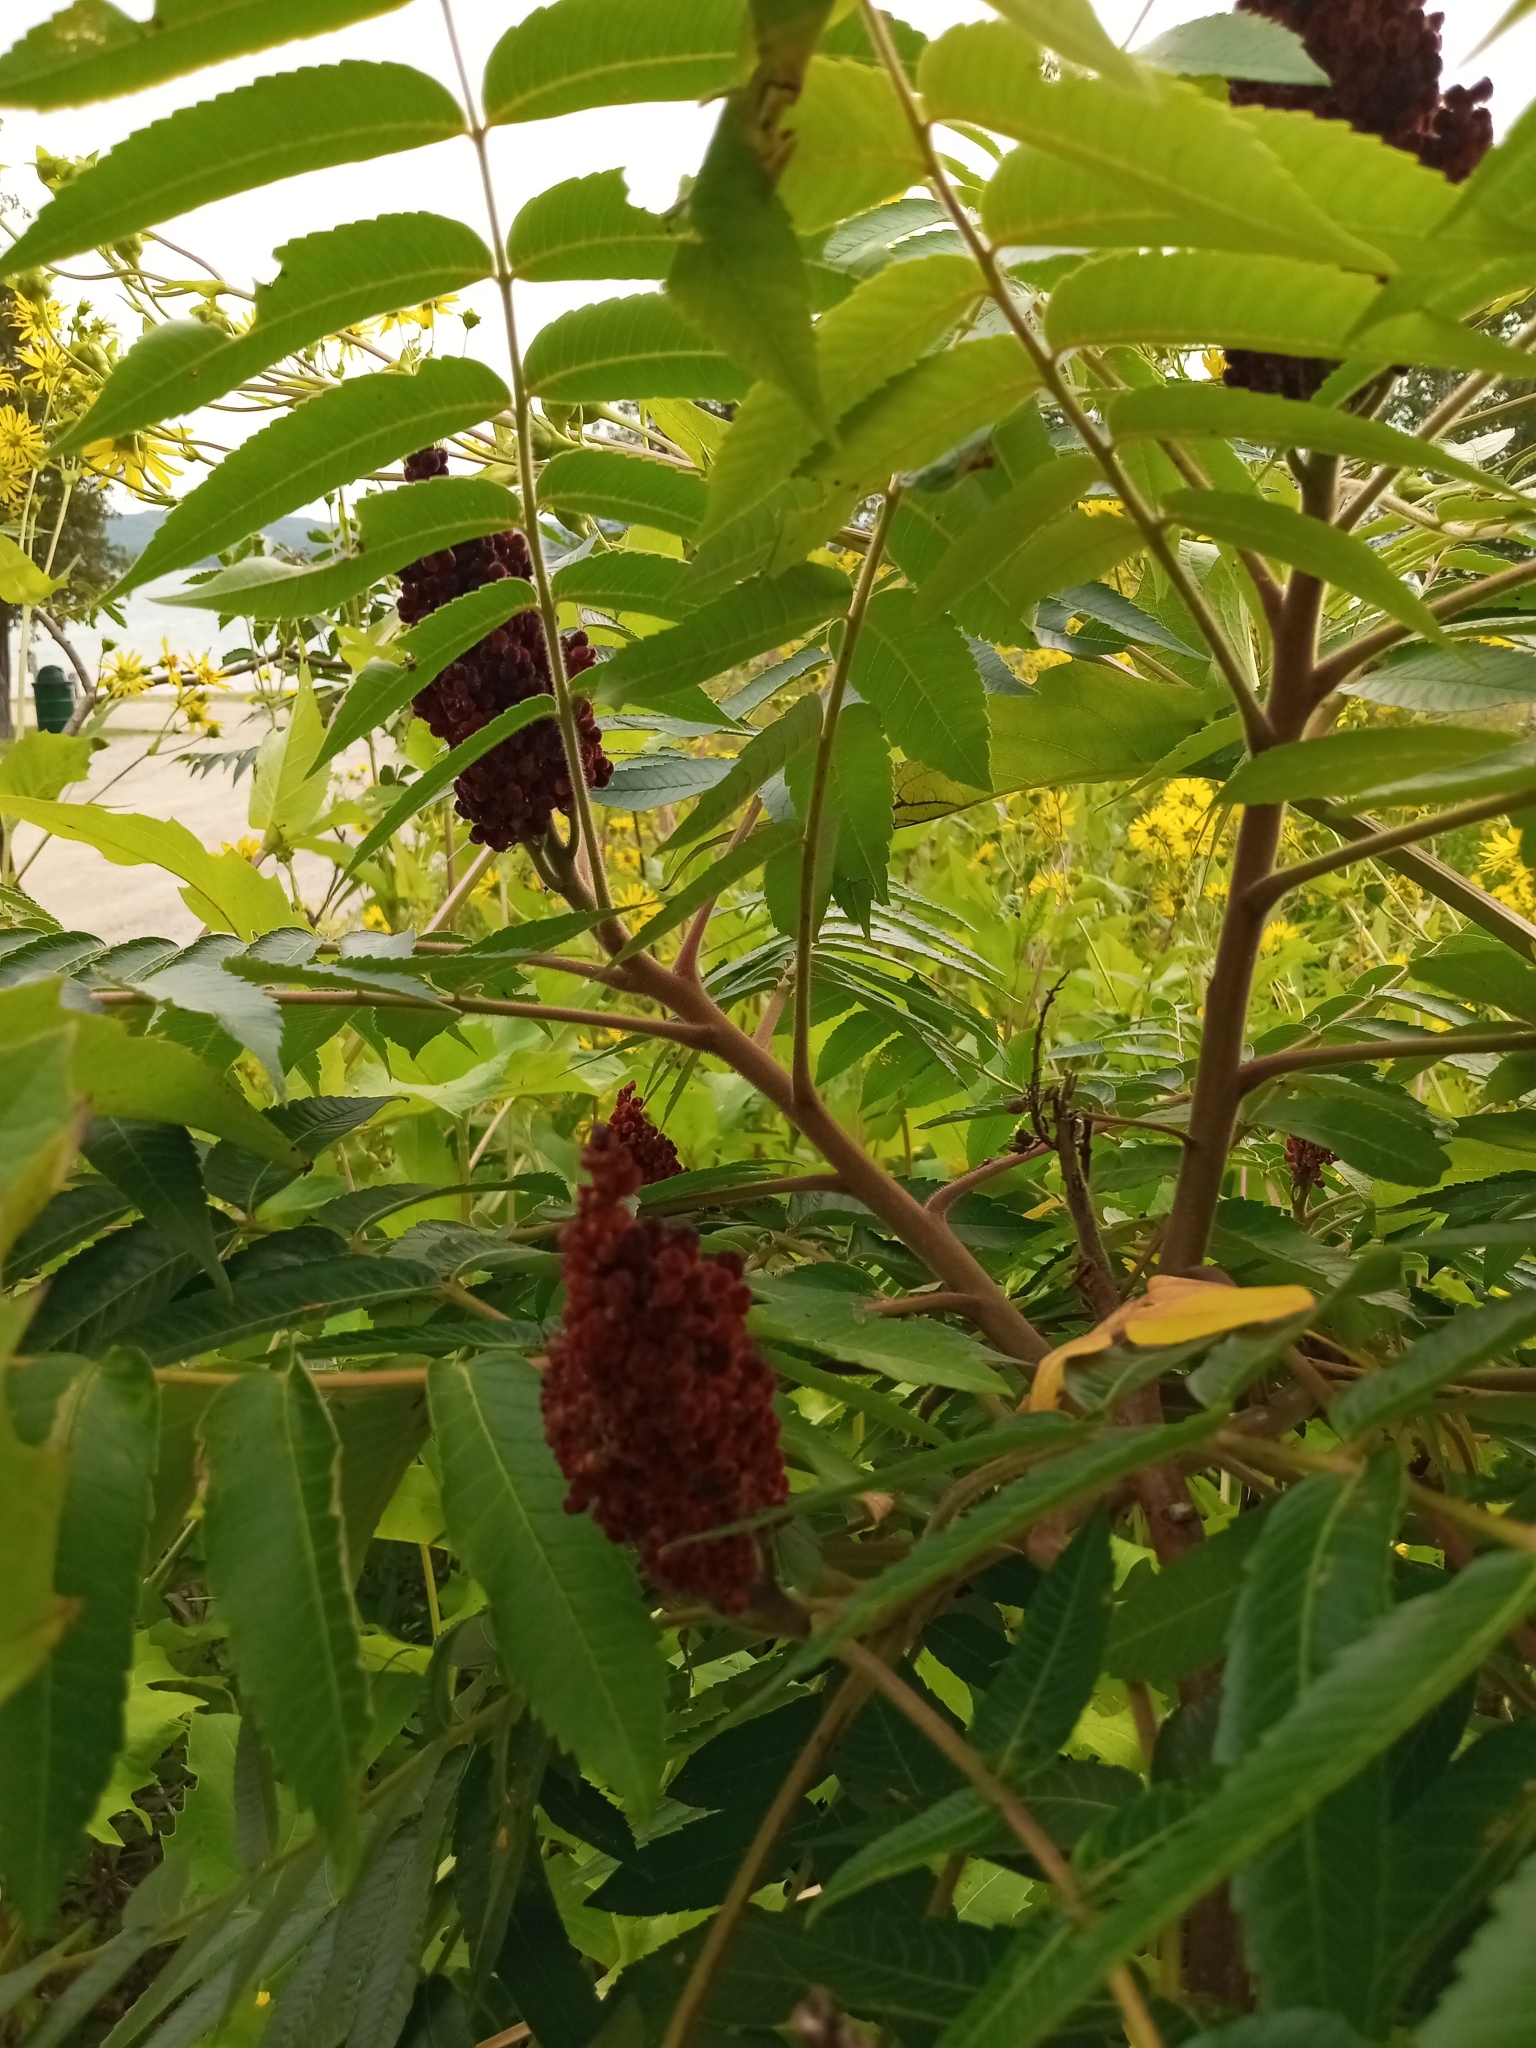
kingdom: Plantae
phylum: Tracheophyta
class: Magnoliopsida
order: Sapindales
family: Anacardiaceae
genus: Rhus
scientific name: Rhus typhina
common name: Staghorn sumac
